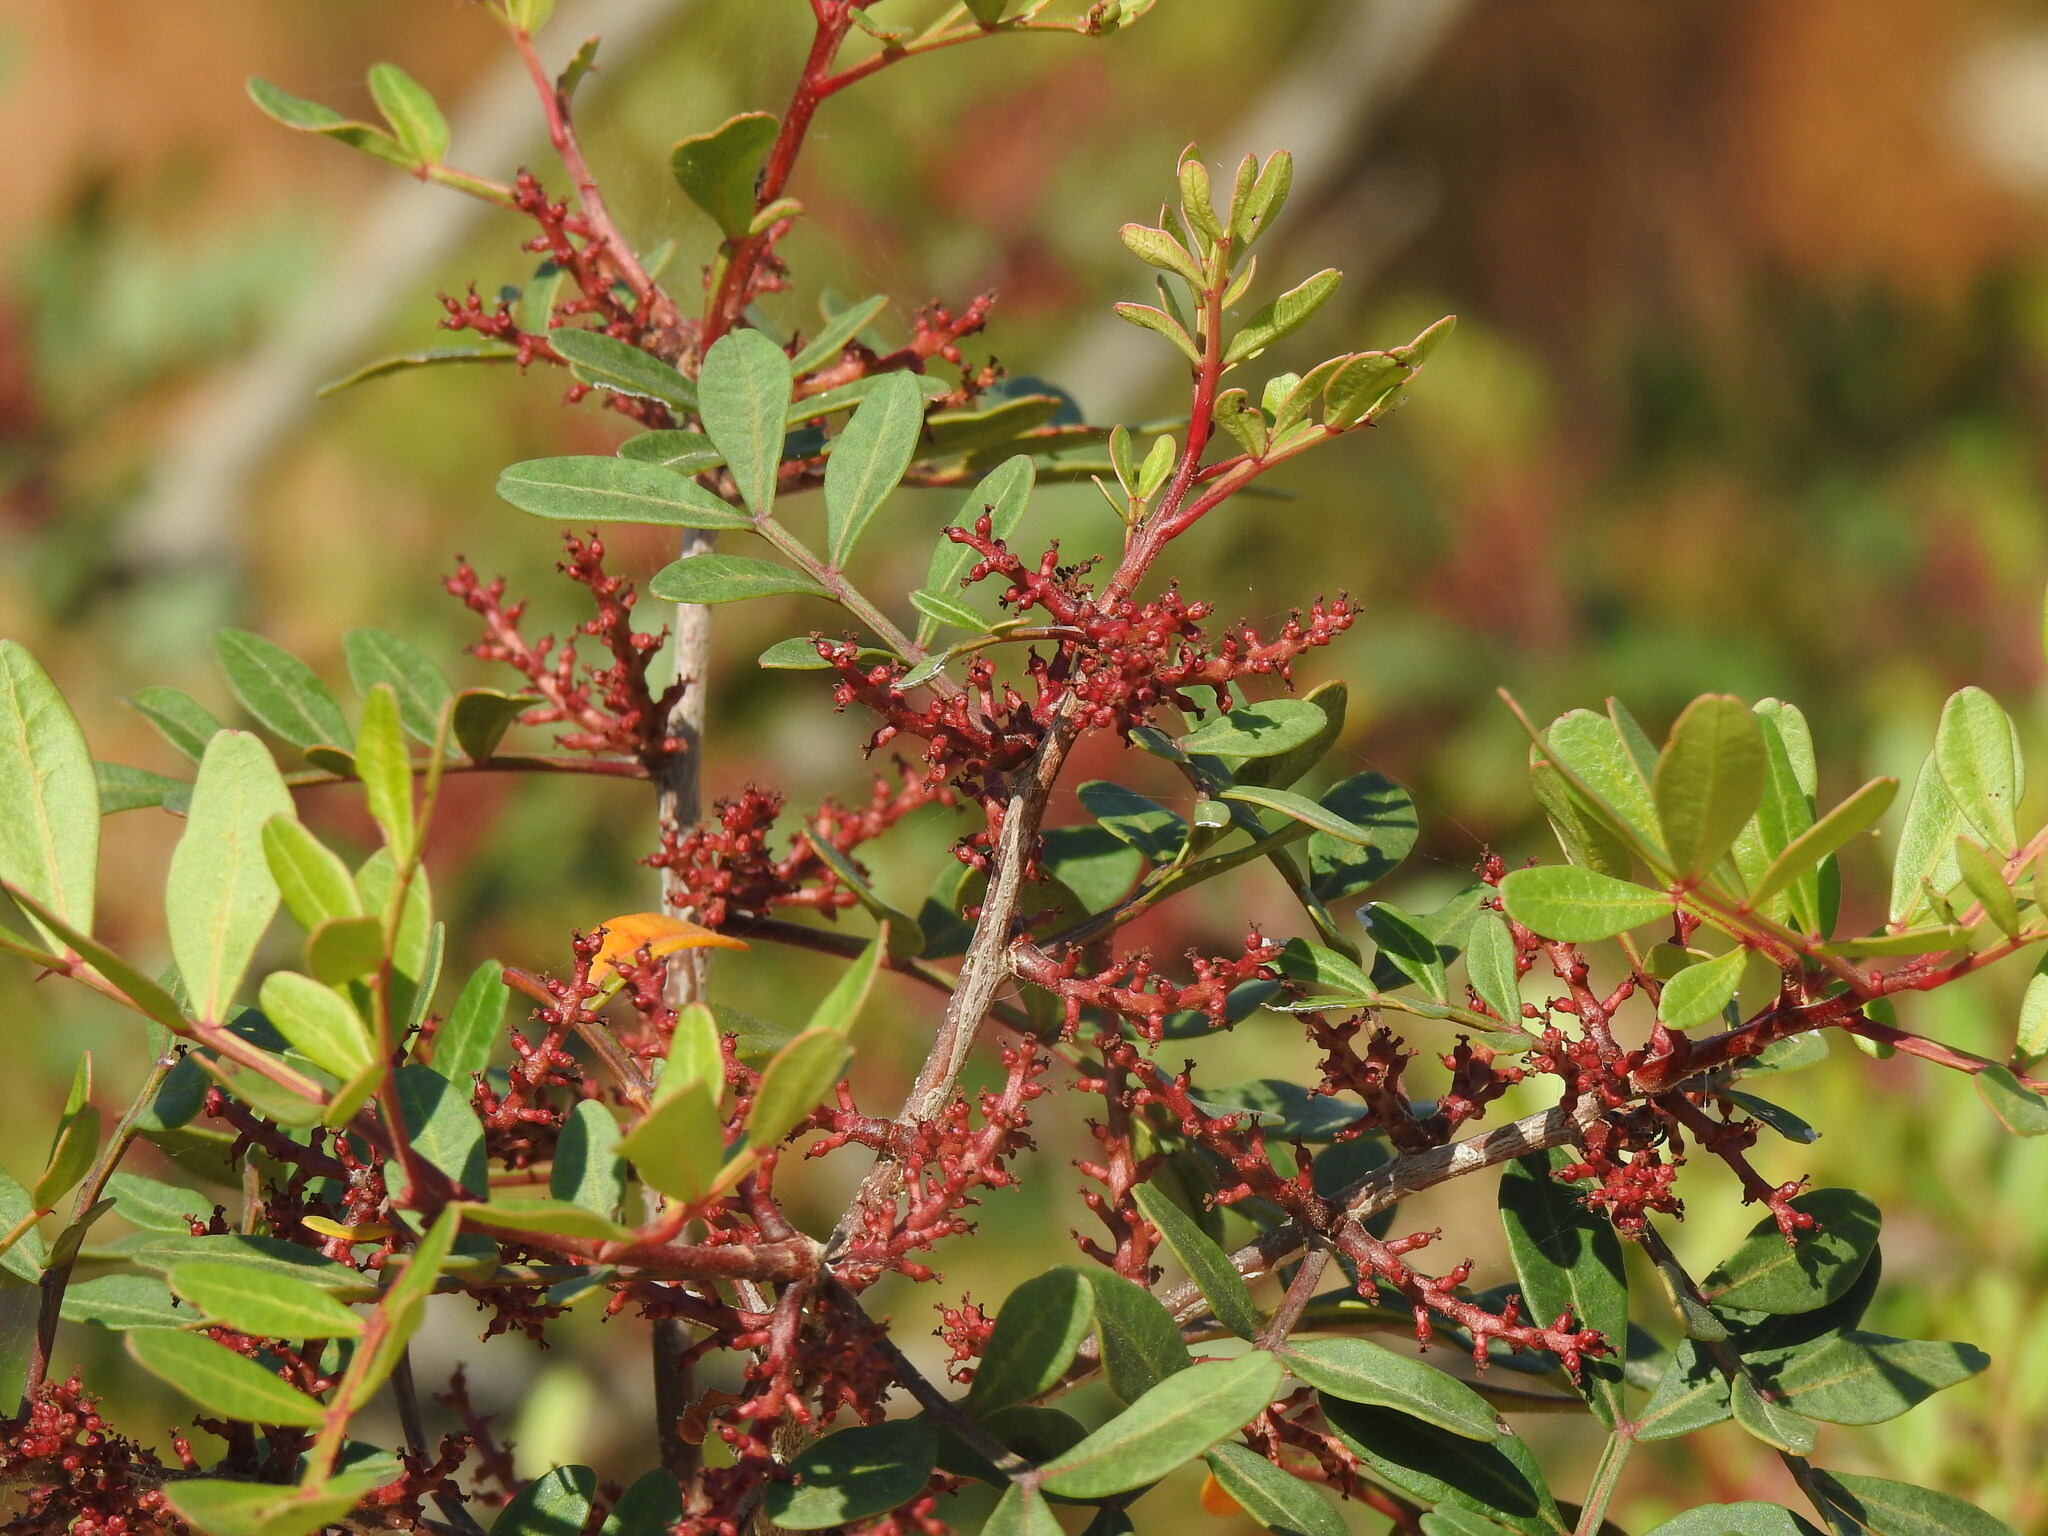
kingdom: Plantae
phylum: Tracheophyta
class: Magnoliopsida
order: Sapindales
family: Anacardiaceae
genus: Pistacia
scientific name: Pistacia lentiscus
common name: Lentisk
